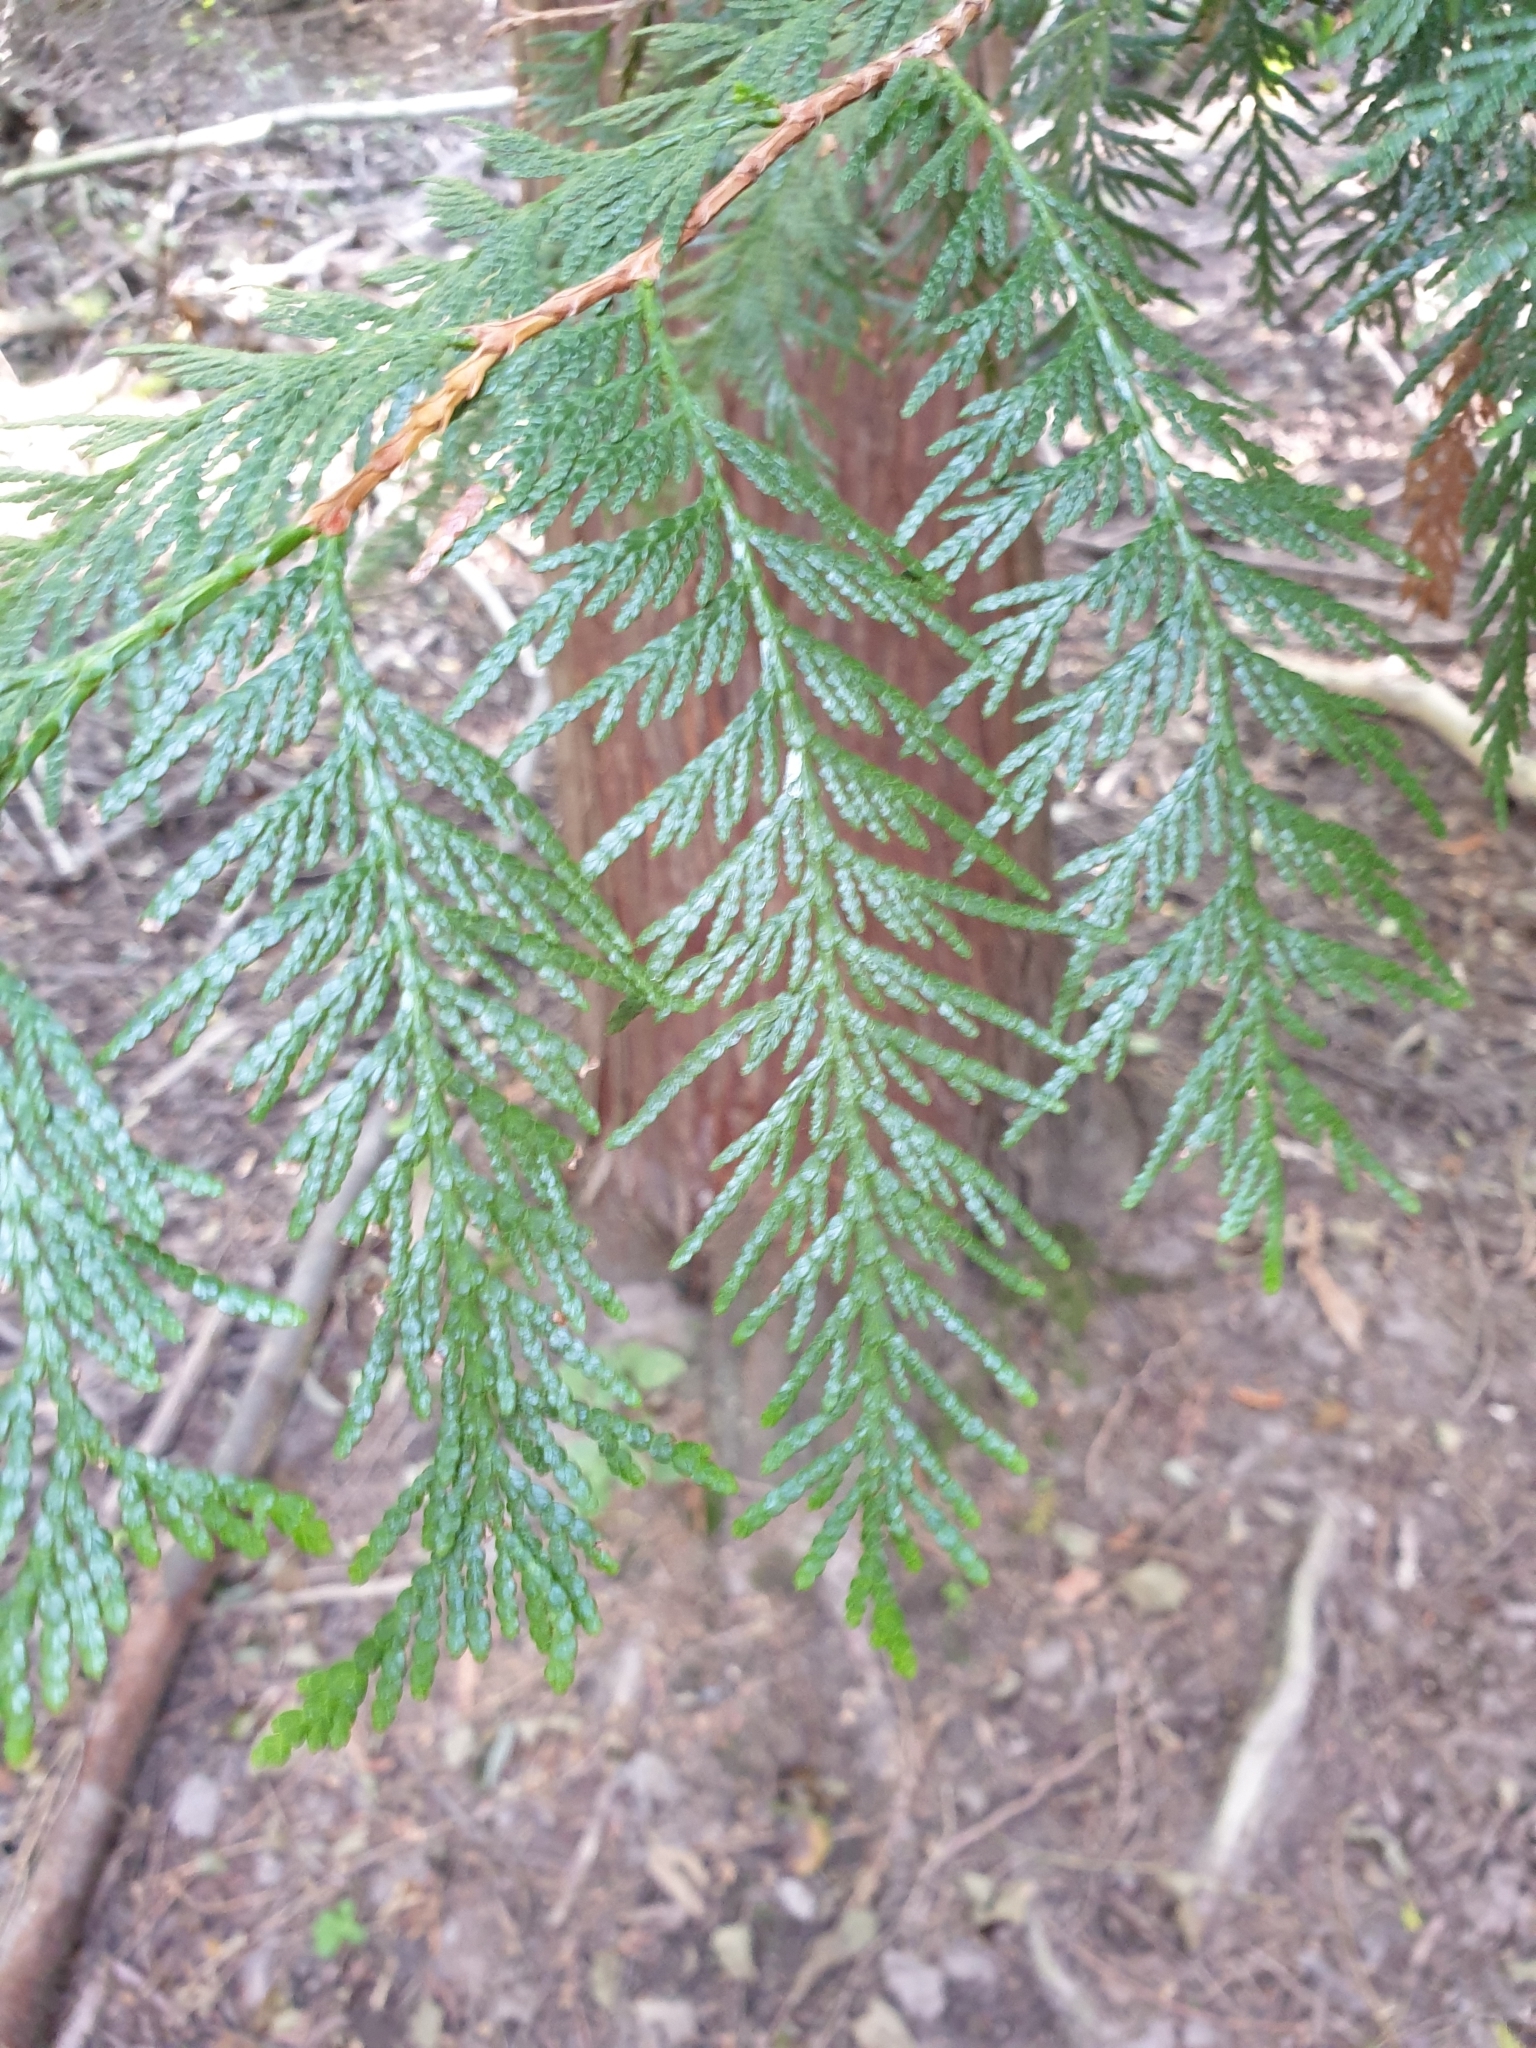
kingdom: Plantae
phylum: Tracheophyta
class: Pinopsida
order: Pinales
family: Cupressaceae
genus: Thuja
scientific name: Thuja plicata
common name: Western red-cedar
